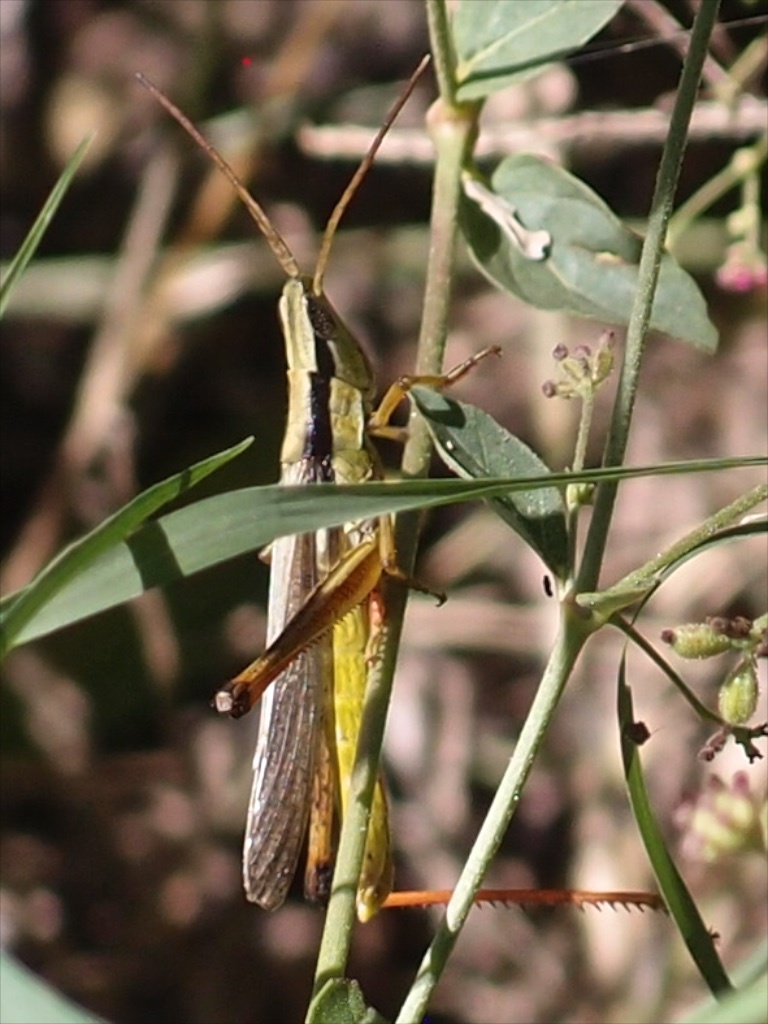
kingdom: Animalia
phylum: Arthropoda
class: Insecta
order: Orthoptera
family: Acrididae
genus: Mermiria
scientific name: Mermiria bivittata
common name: Two-striped mermiria grasshopper
